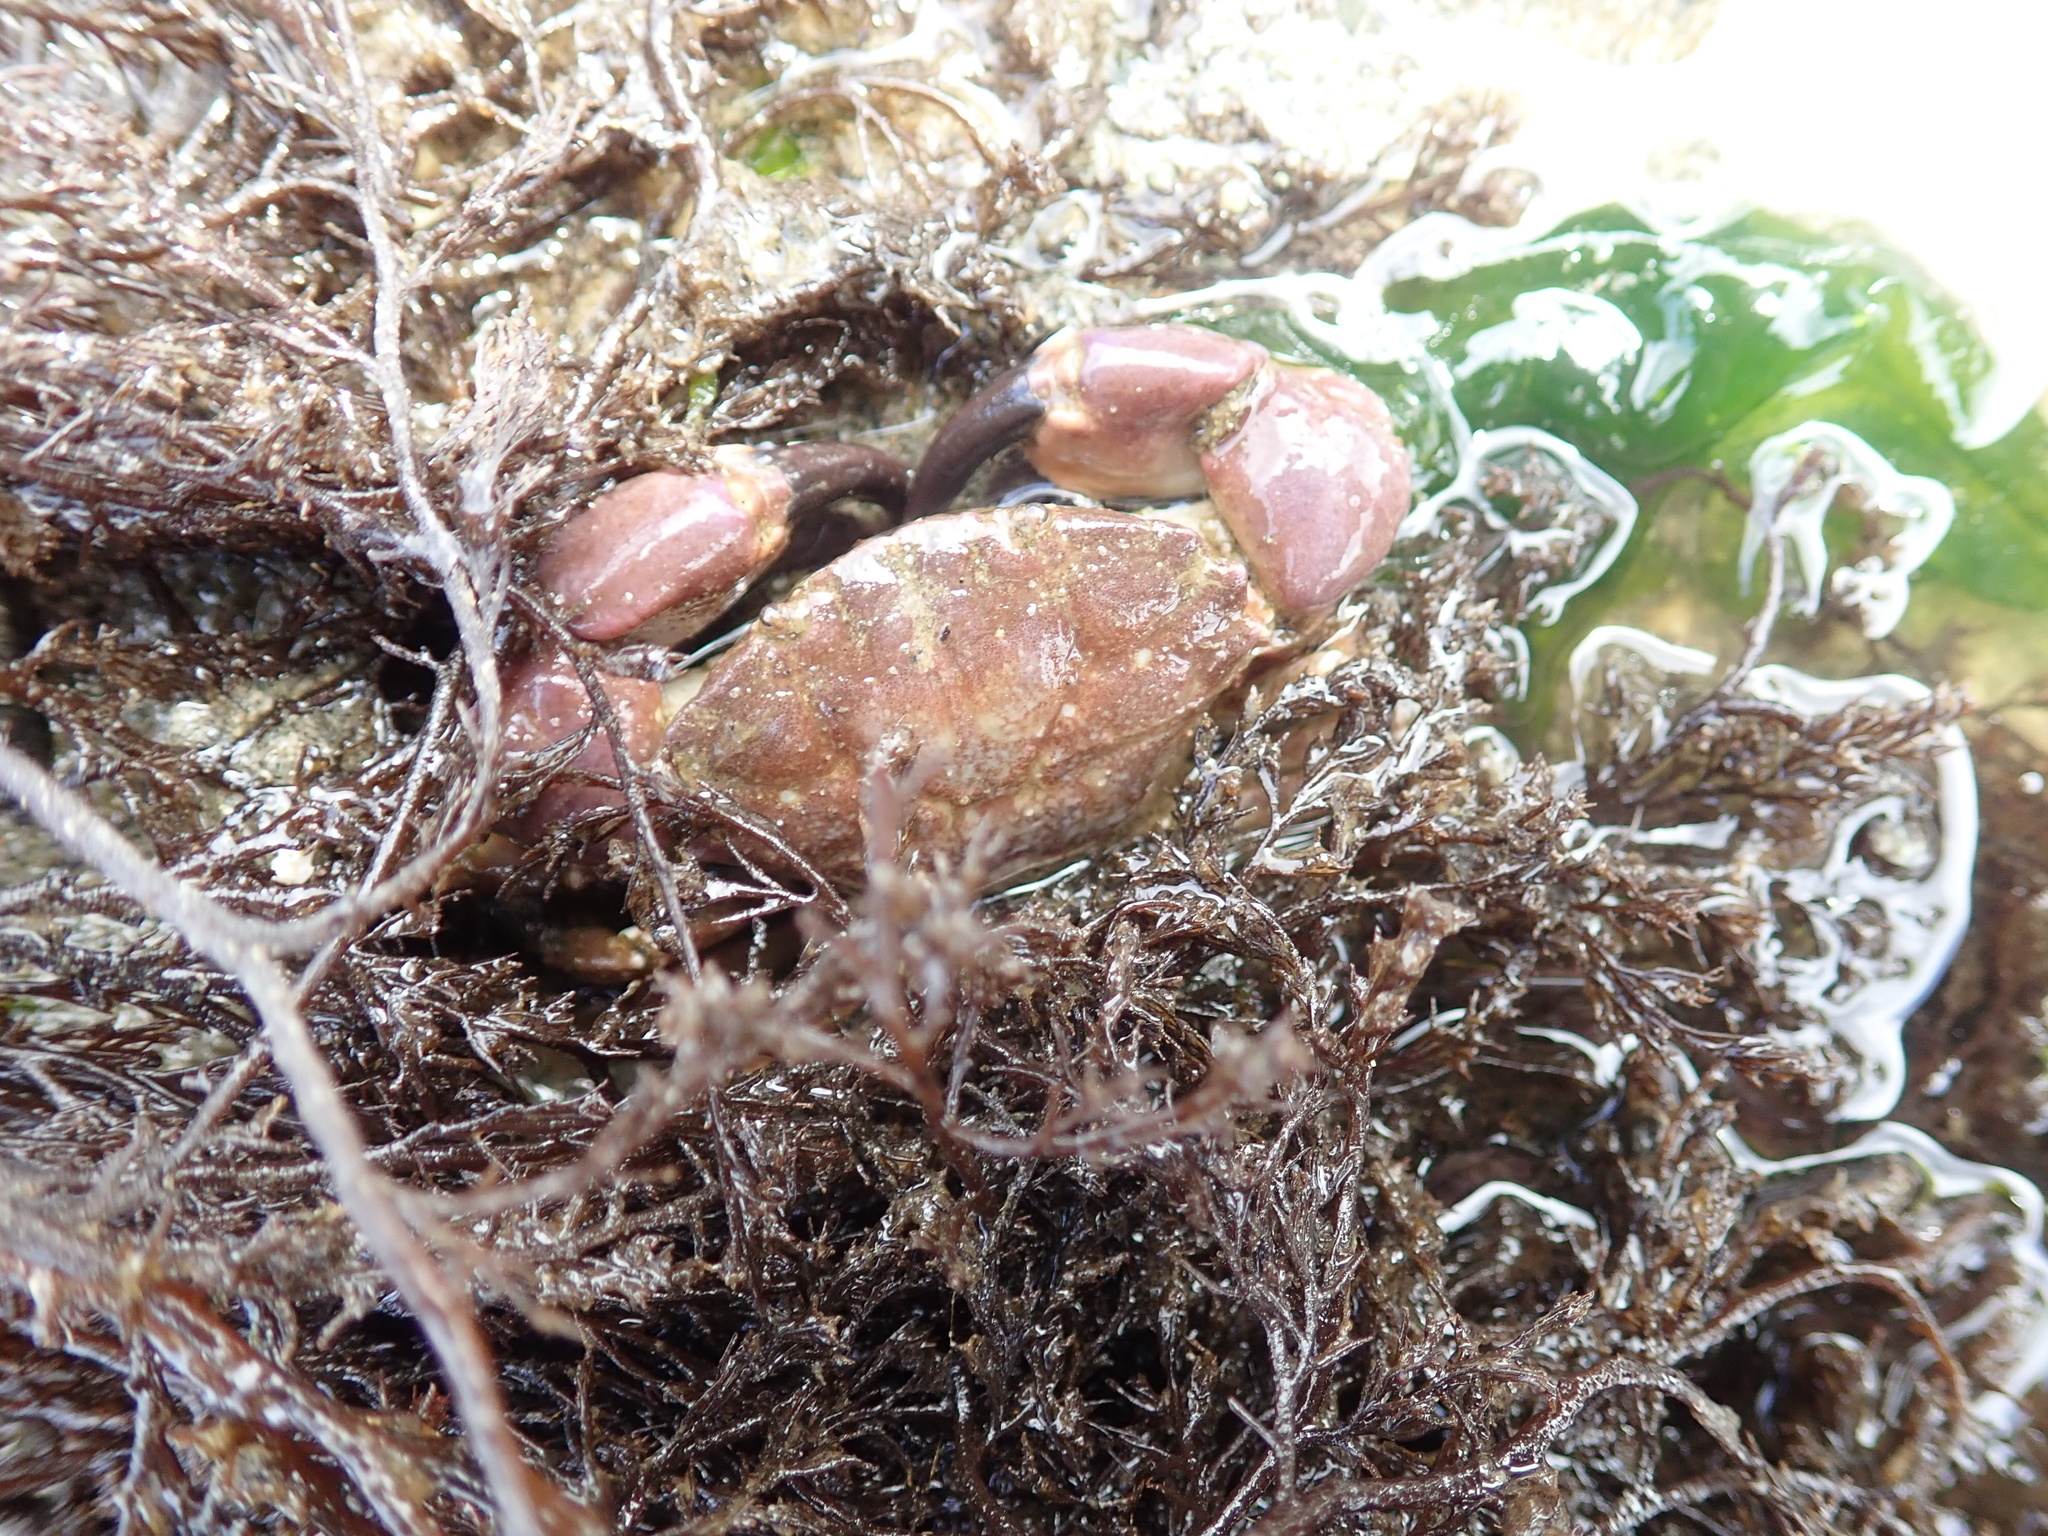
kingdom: Animalia
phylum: Arthropoda
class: Malacostraca
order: Decapoda
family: Panopeidae
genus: Lophopanopeus
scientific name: Lophopanopeus bellus
